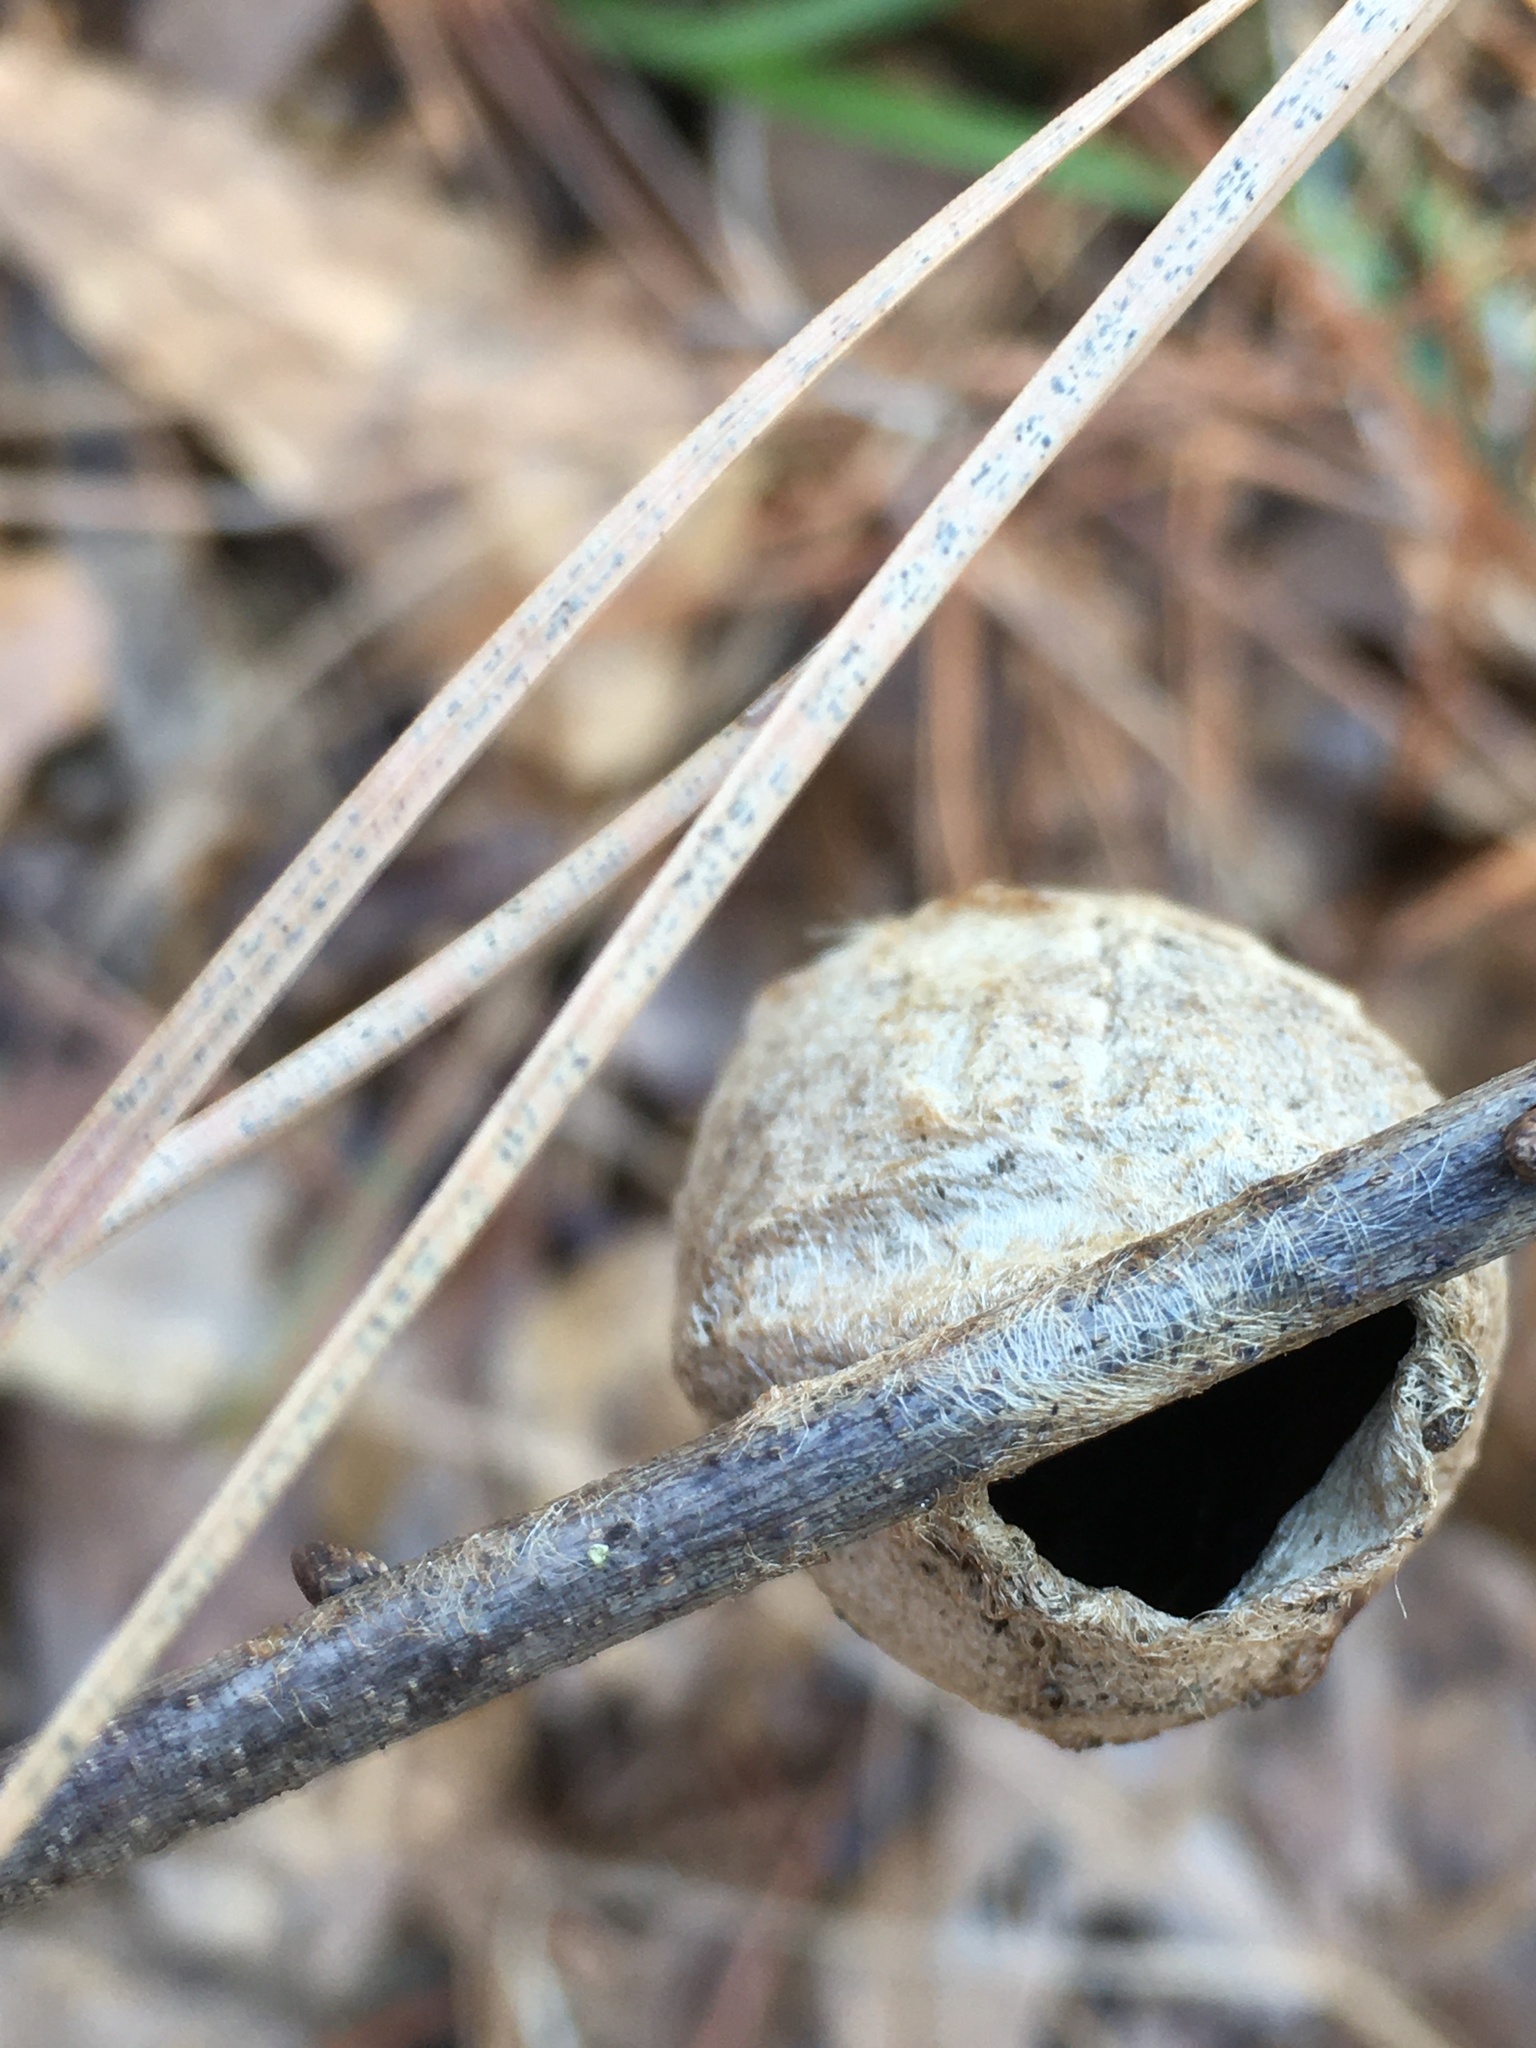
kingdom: Animalia
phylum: Arthropoda
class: Insecta
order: Lepidoptera
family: Saturniidae
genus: Antheraea
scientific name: Antheraea polyphemus
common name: Polyphemus moth
